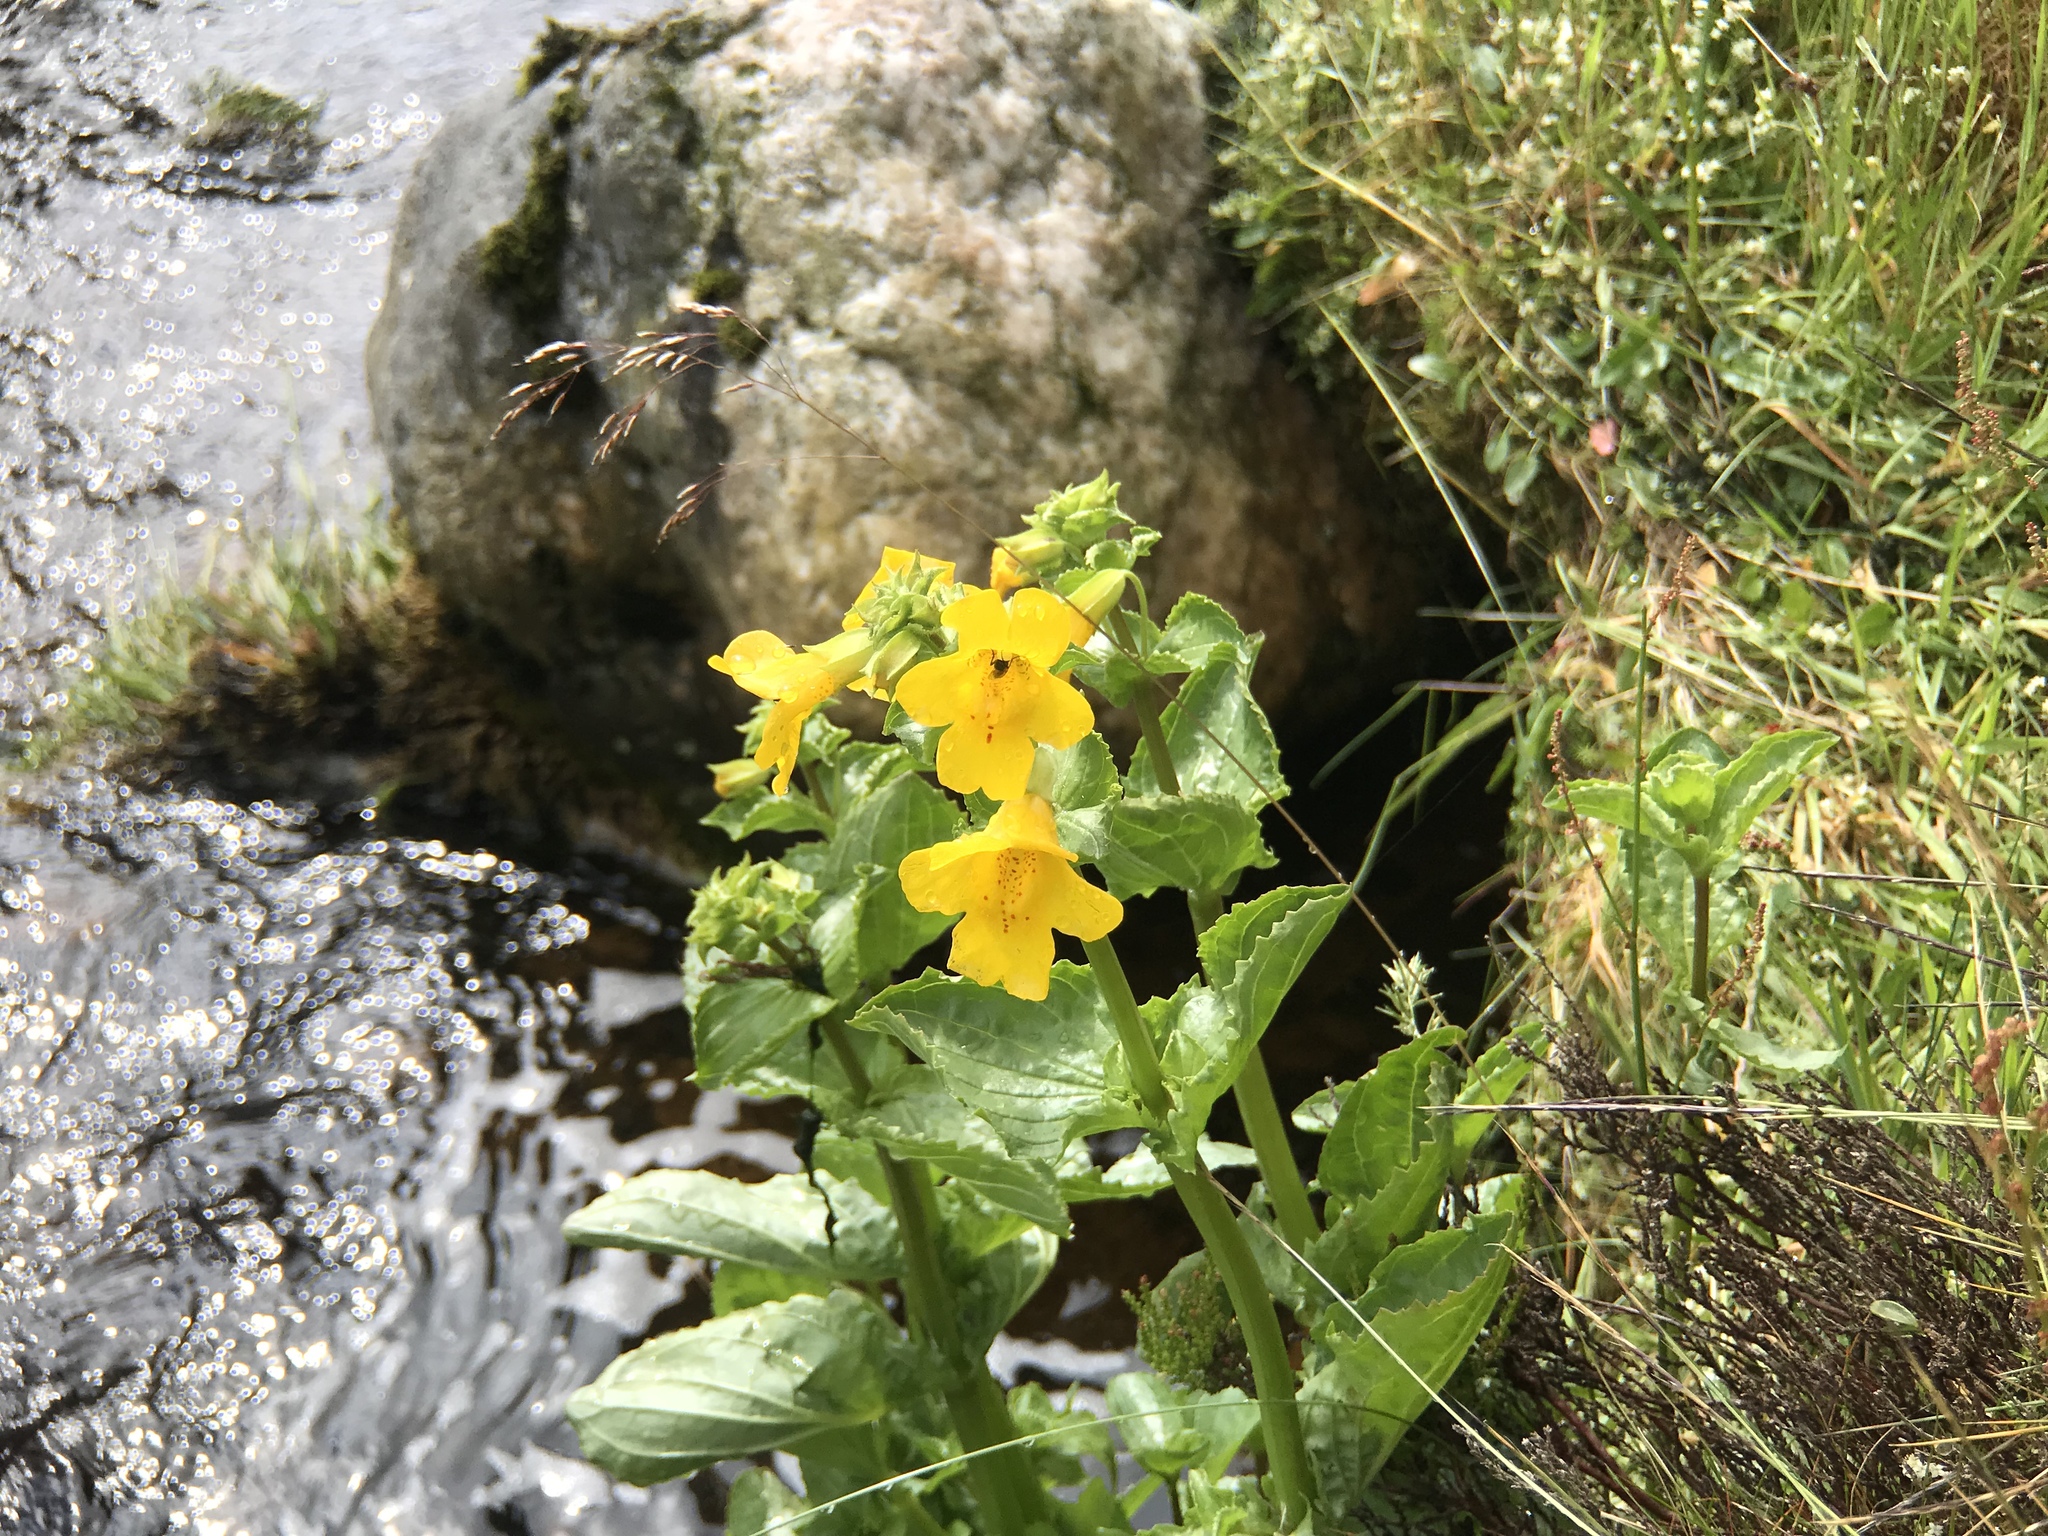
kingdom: Plantae
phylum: Tracheophyta
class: Magnoliopsida
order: Lamiales
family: Phrymaceae
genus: Erythranthe
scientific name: Erythranthe guttata
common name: Monkeyflower
